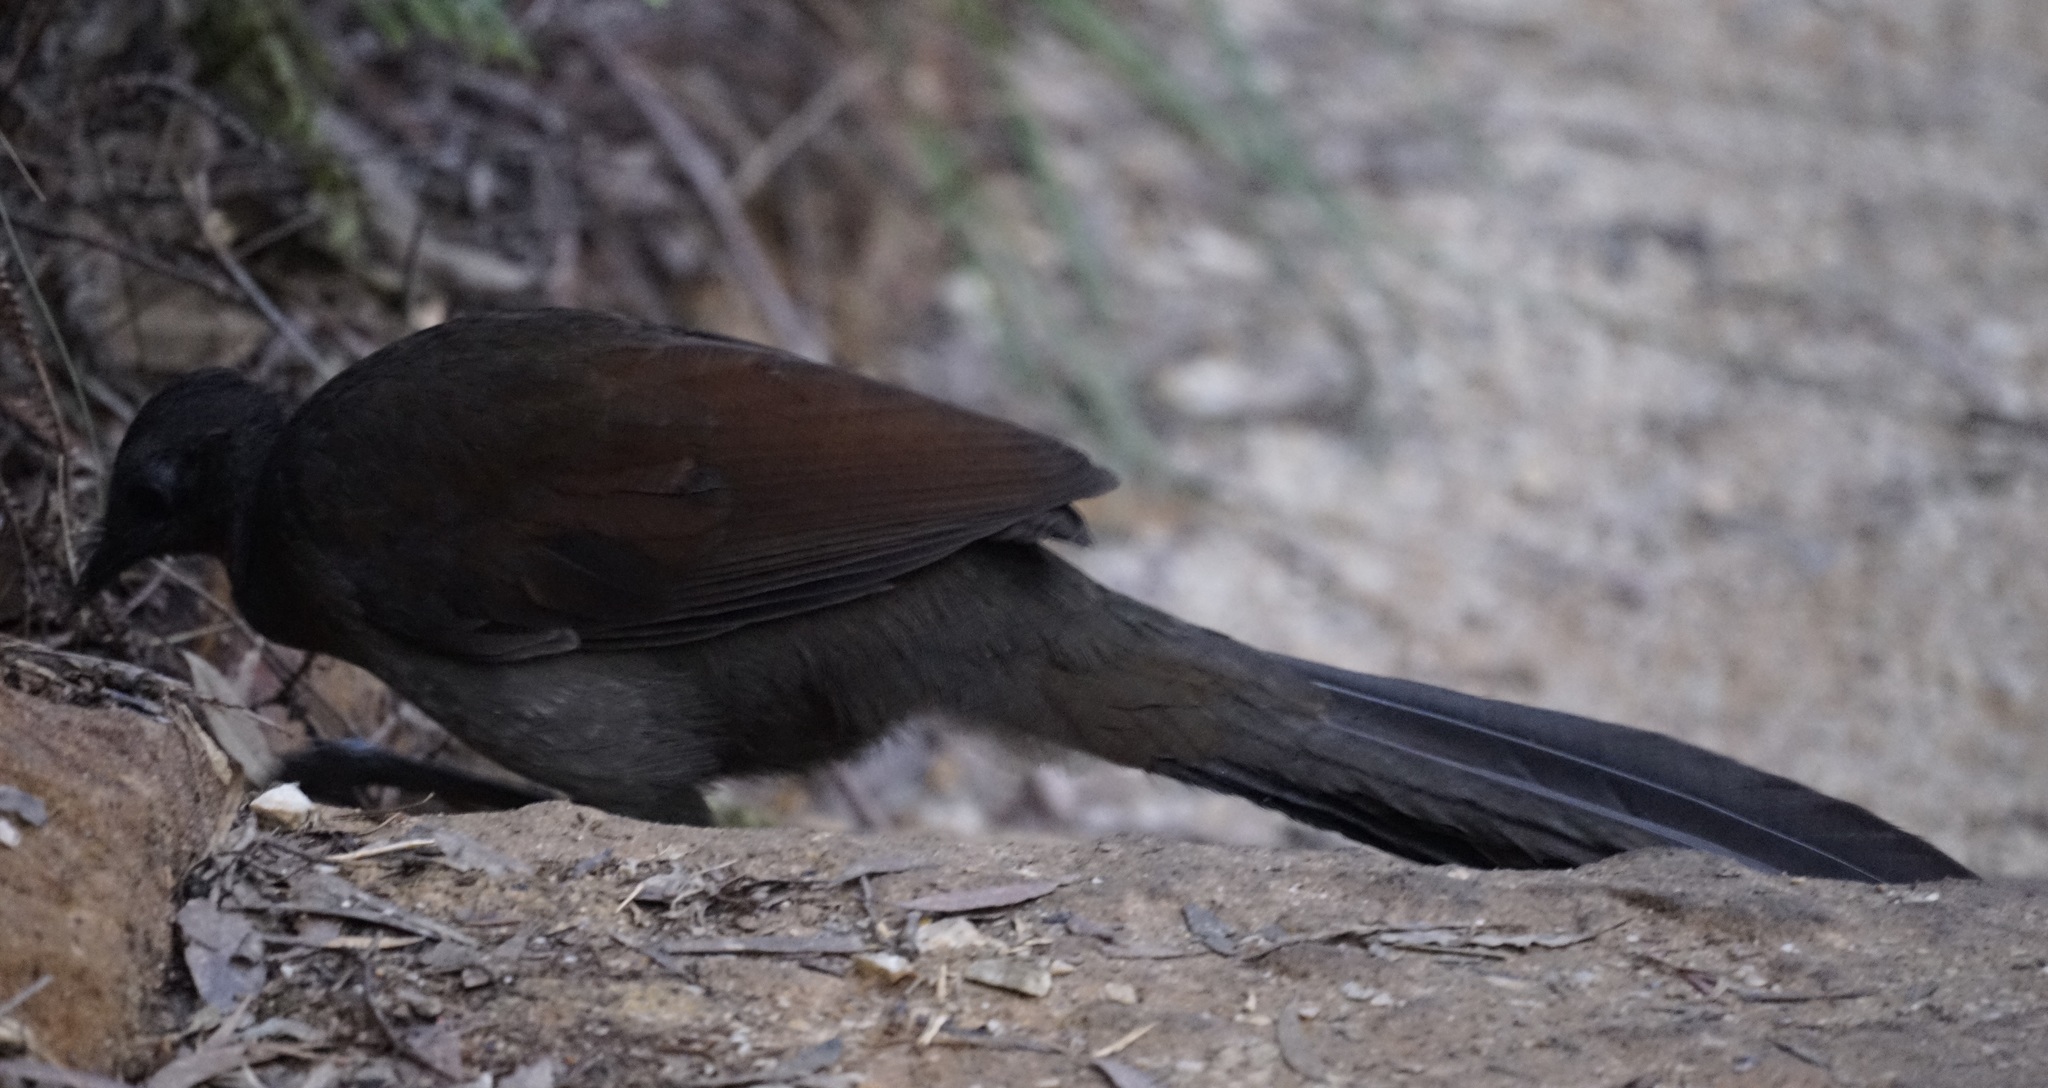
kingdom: Animalia
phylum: Chordata
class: Aves
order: Passeriformes
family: Menuridae
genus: Menura
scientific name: Menura novaehollandiae
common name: Superb lyrebird
